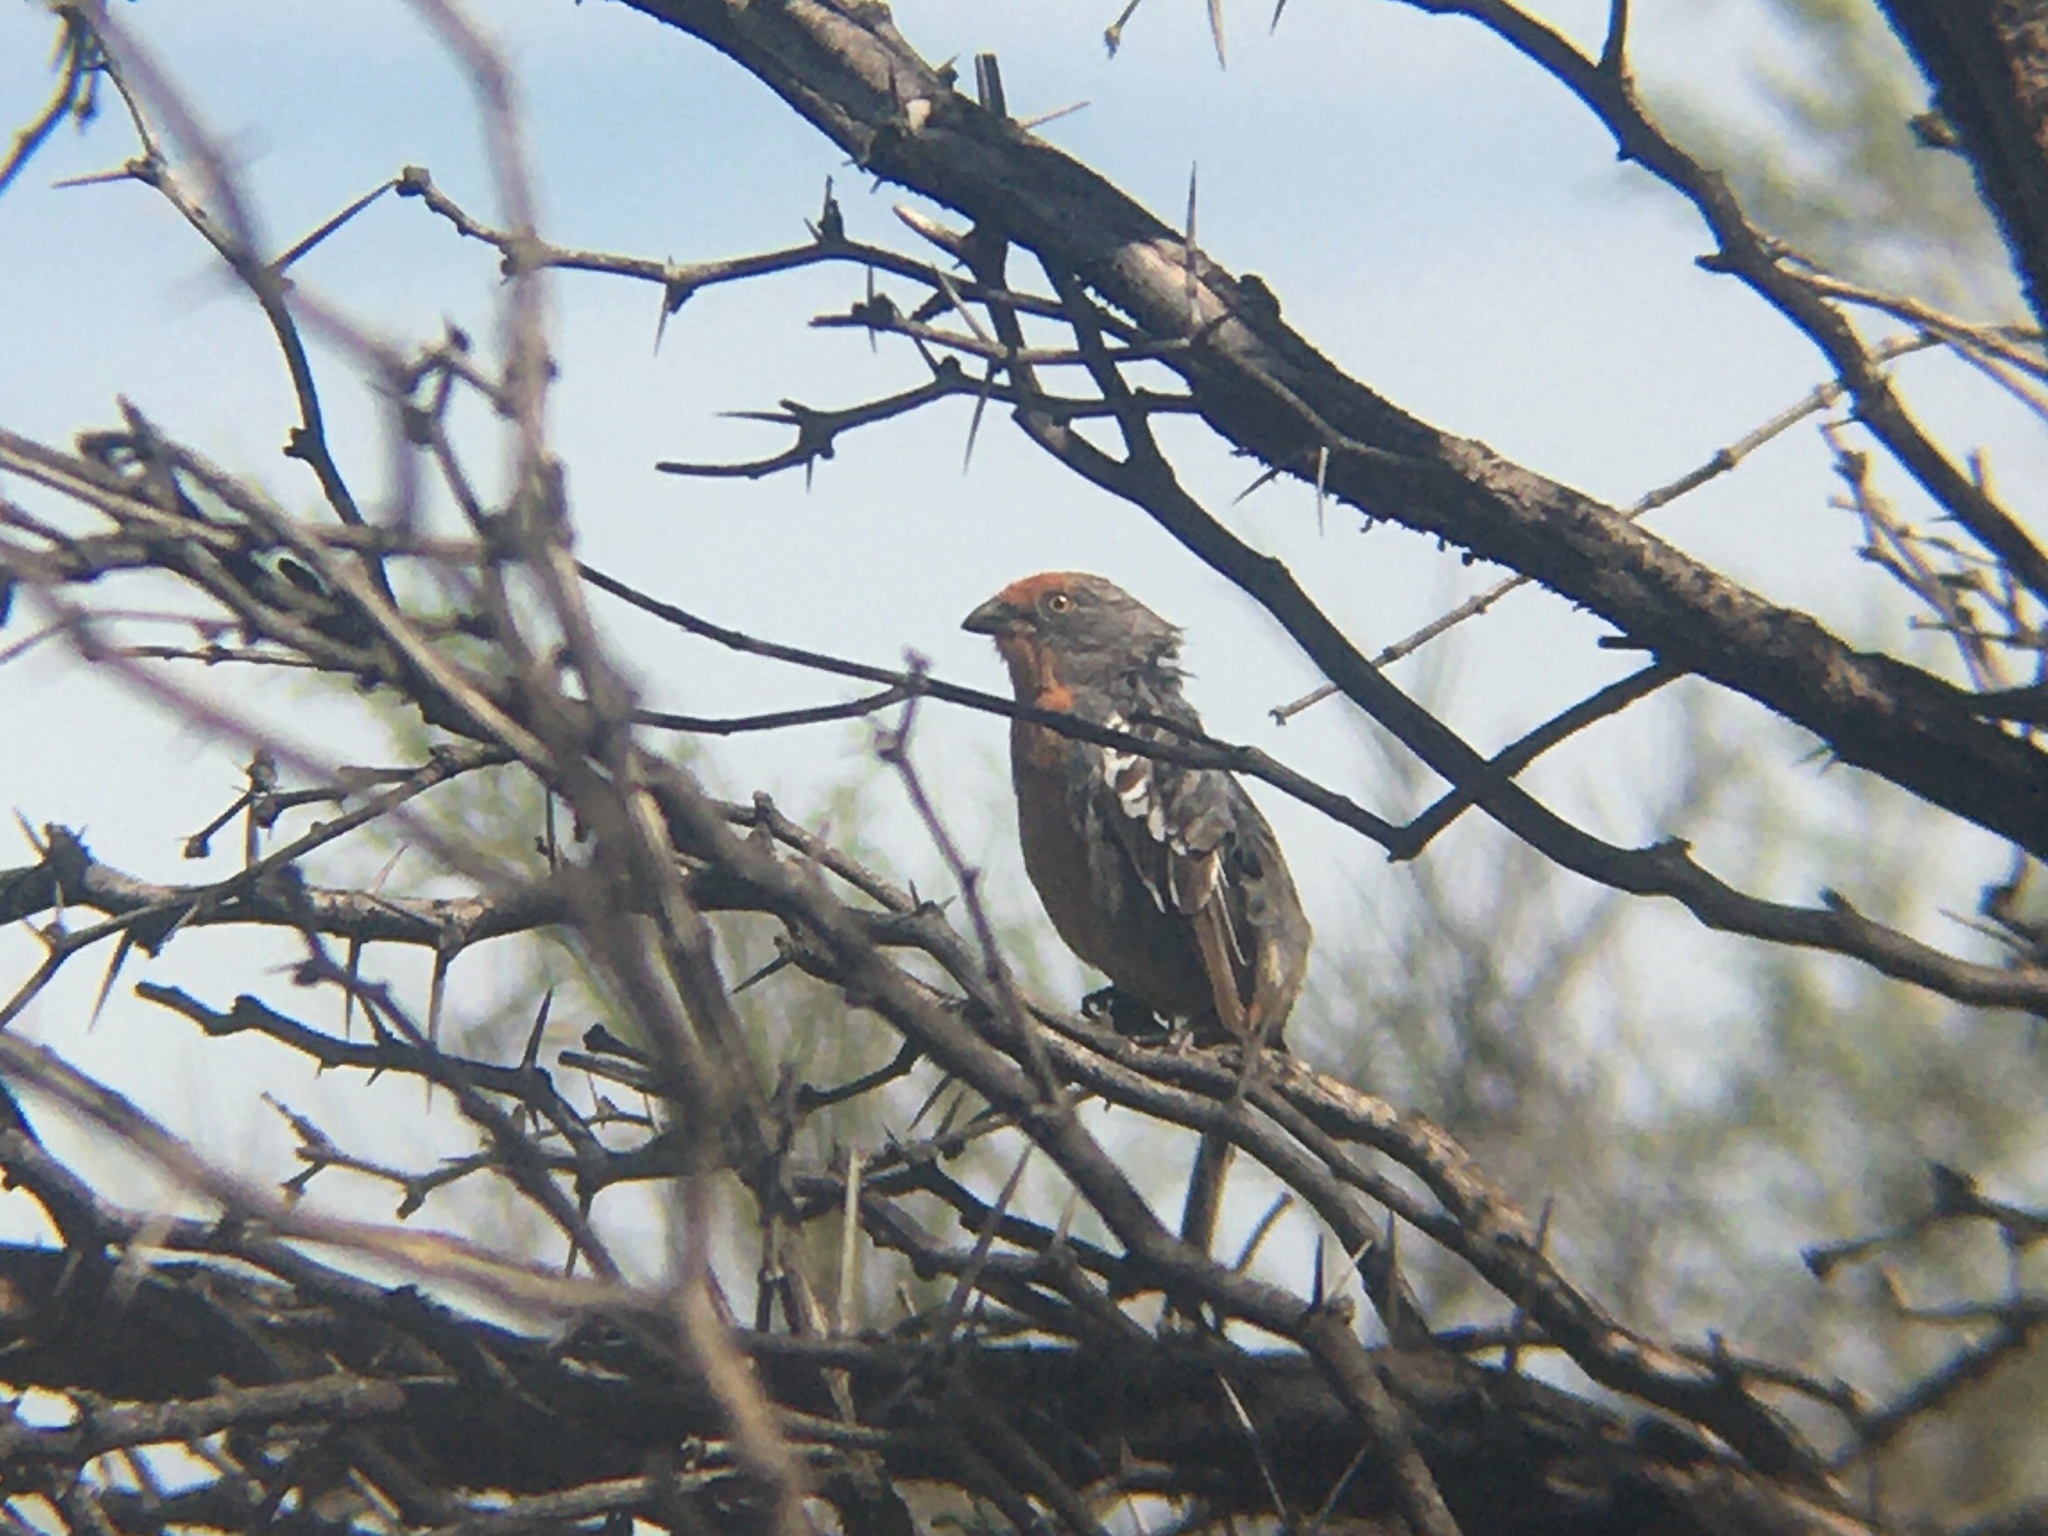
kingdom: Animalia
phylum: Chordata
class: Aves
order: Passeriformes
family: Cotingidae
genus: Phytotoma
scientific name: Phytotoma rutila
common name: White-tipped plantcutter
